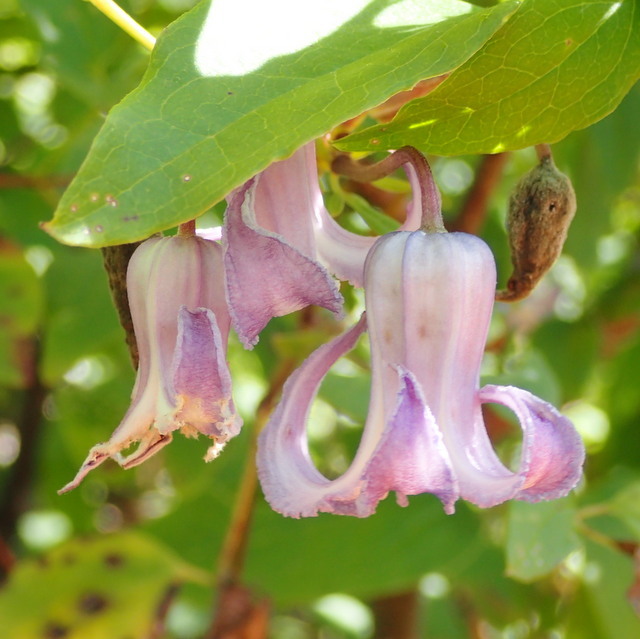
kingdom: Plantae
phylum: Tracheophyta
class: Magnoliopsida
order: Ranunculales
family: Ranunculaceae
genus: Clematis
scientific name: Clematis crispa
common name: Curly clematis
